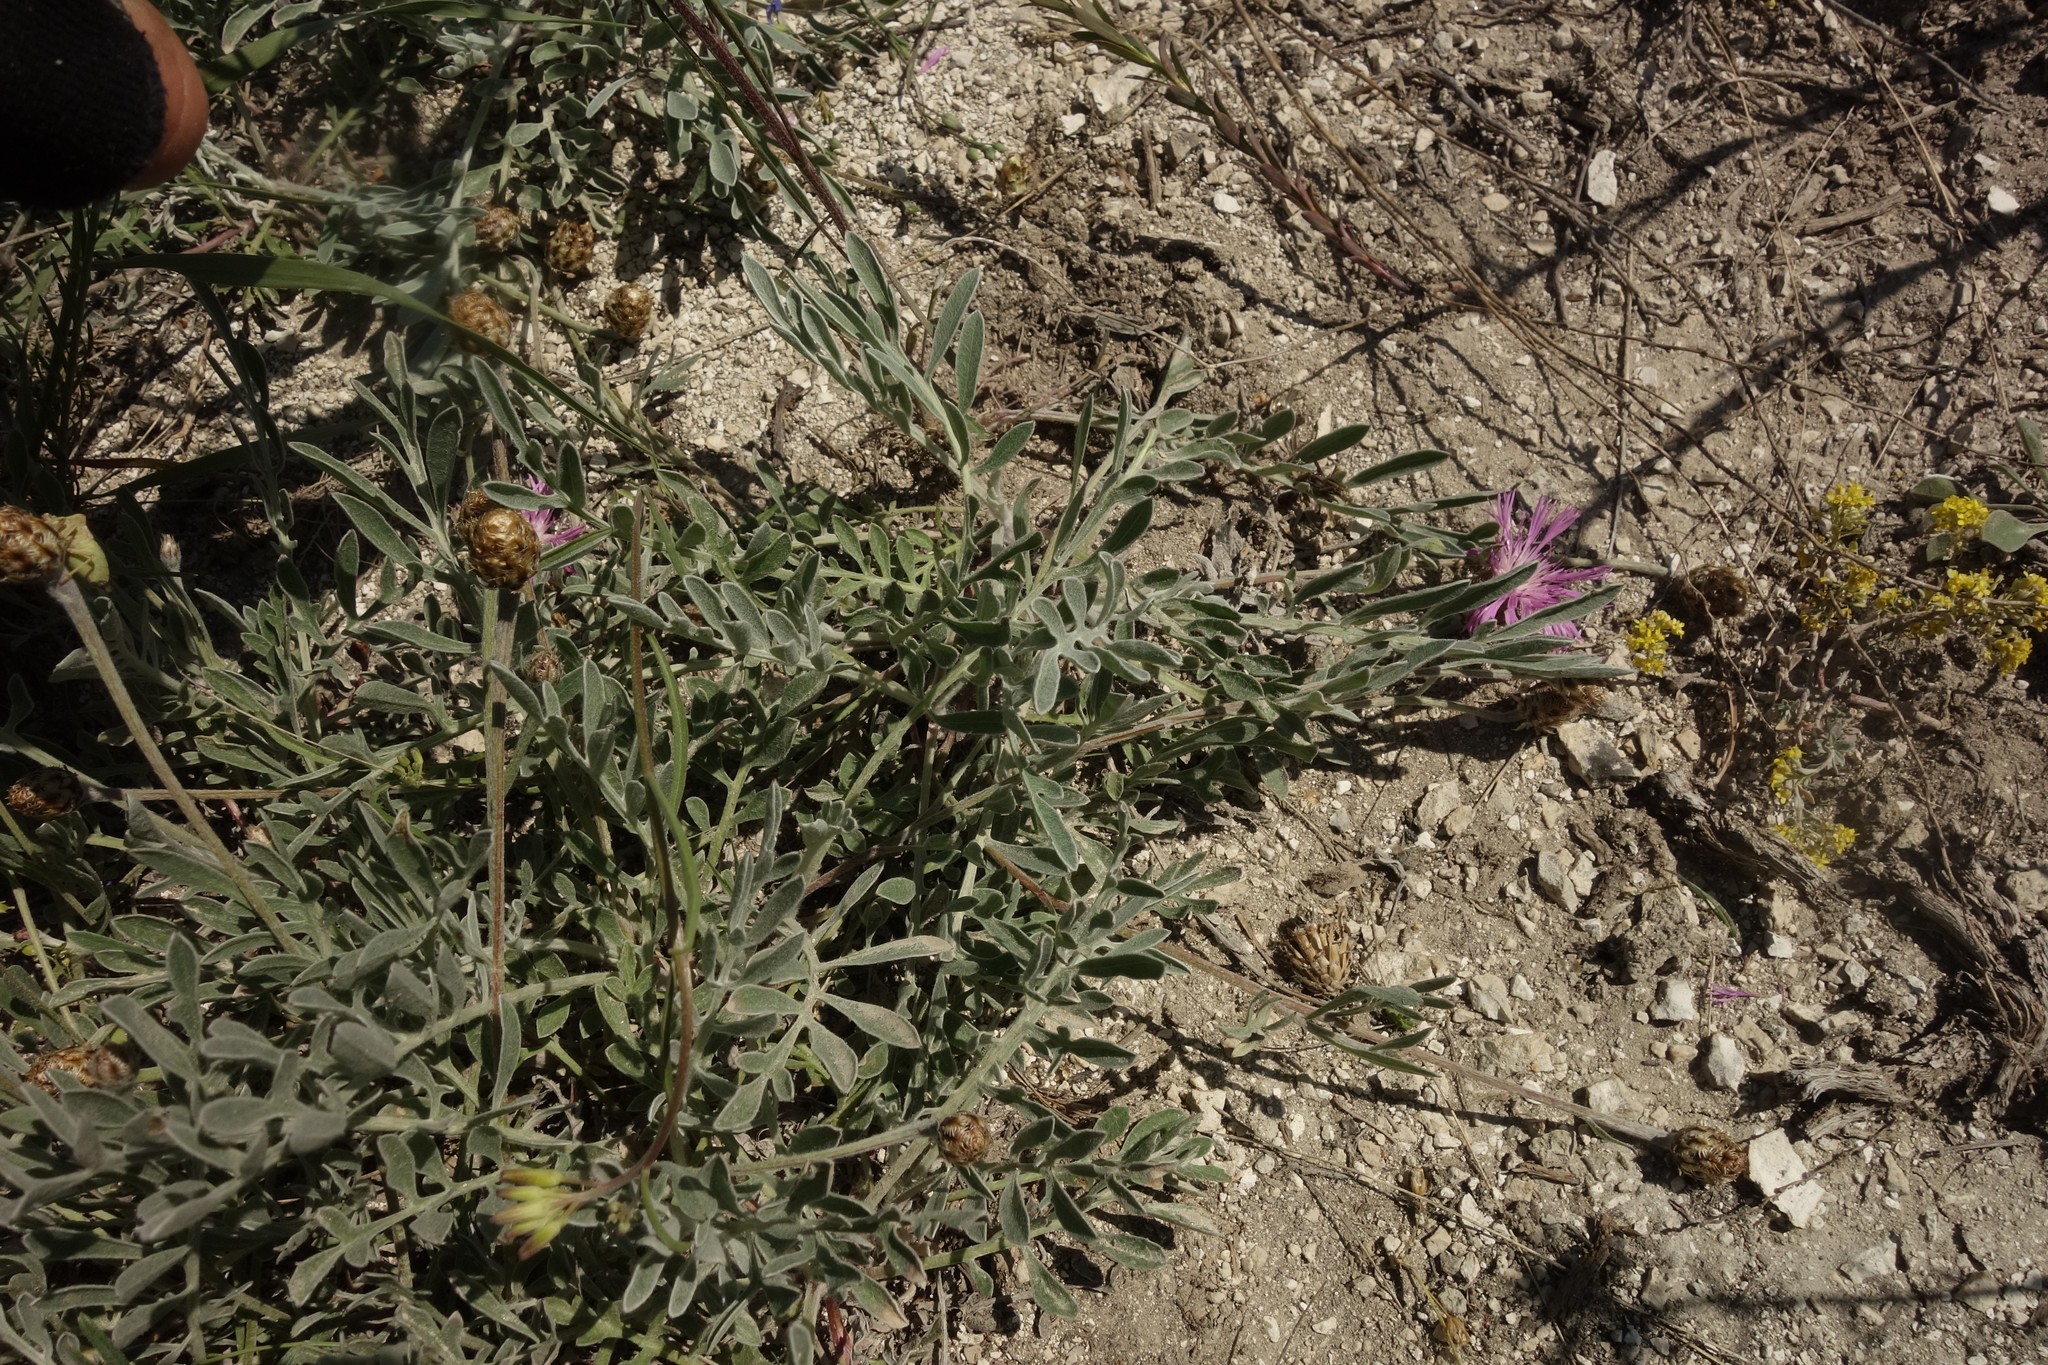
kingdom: Plantae
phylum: Tracheophyta
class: Magnoliopsida
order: Asterales
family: Asteraceae
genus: Psephellus
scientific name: Psephellus marschallianus
